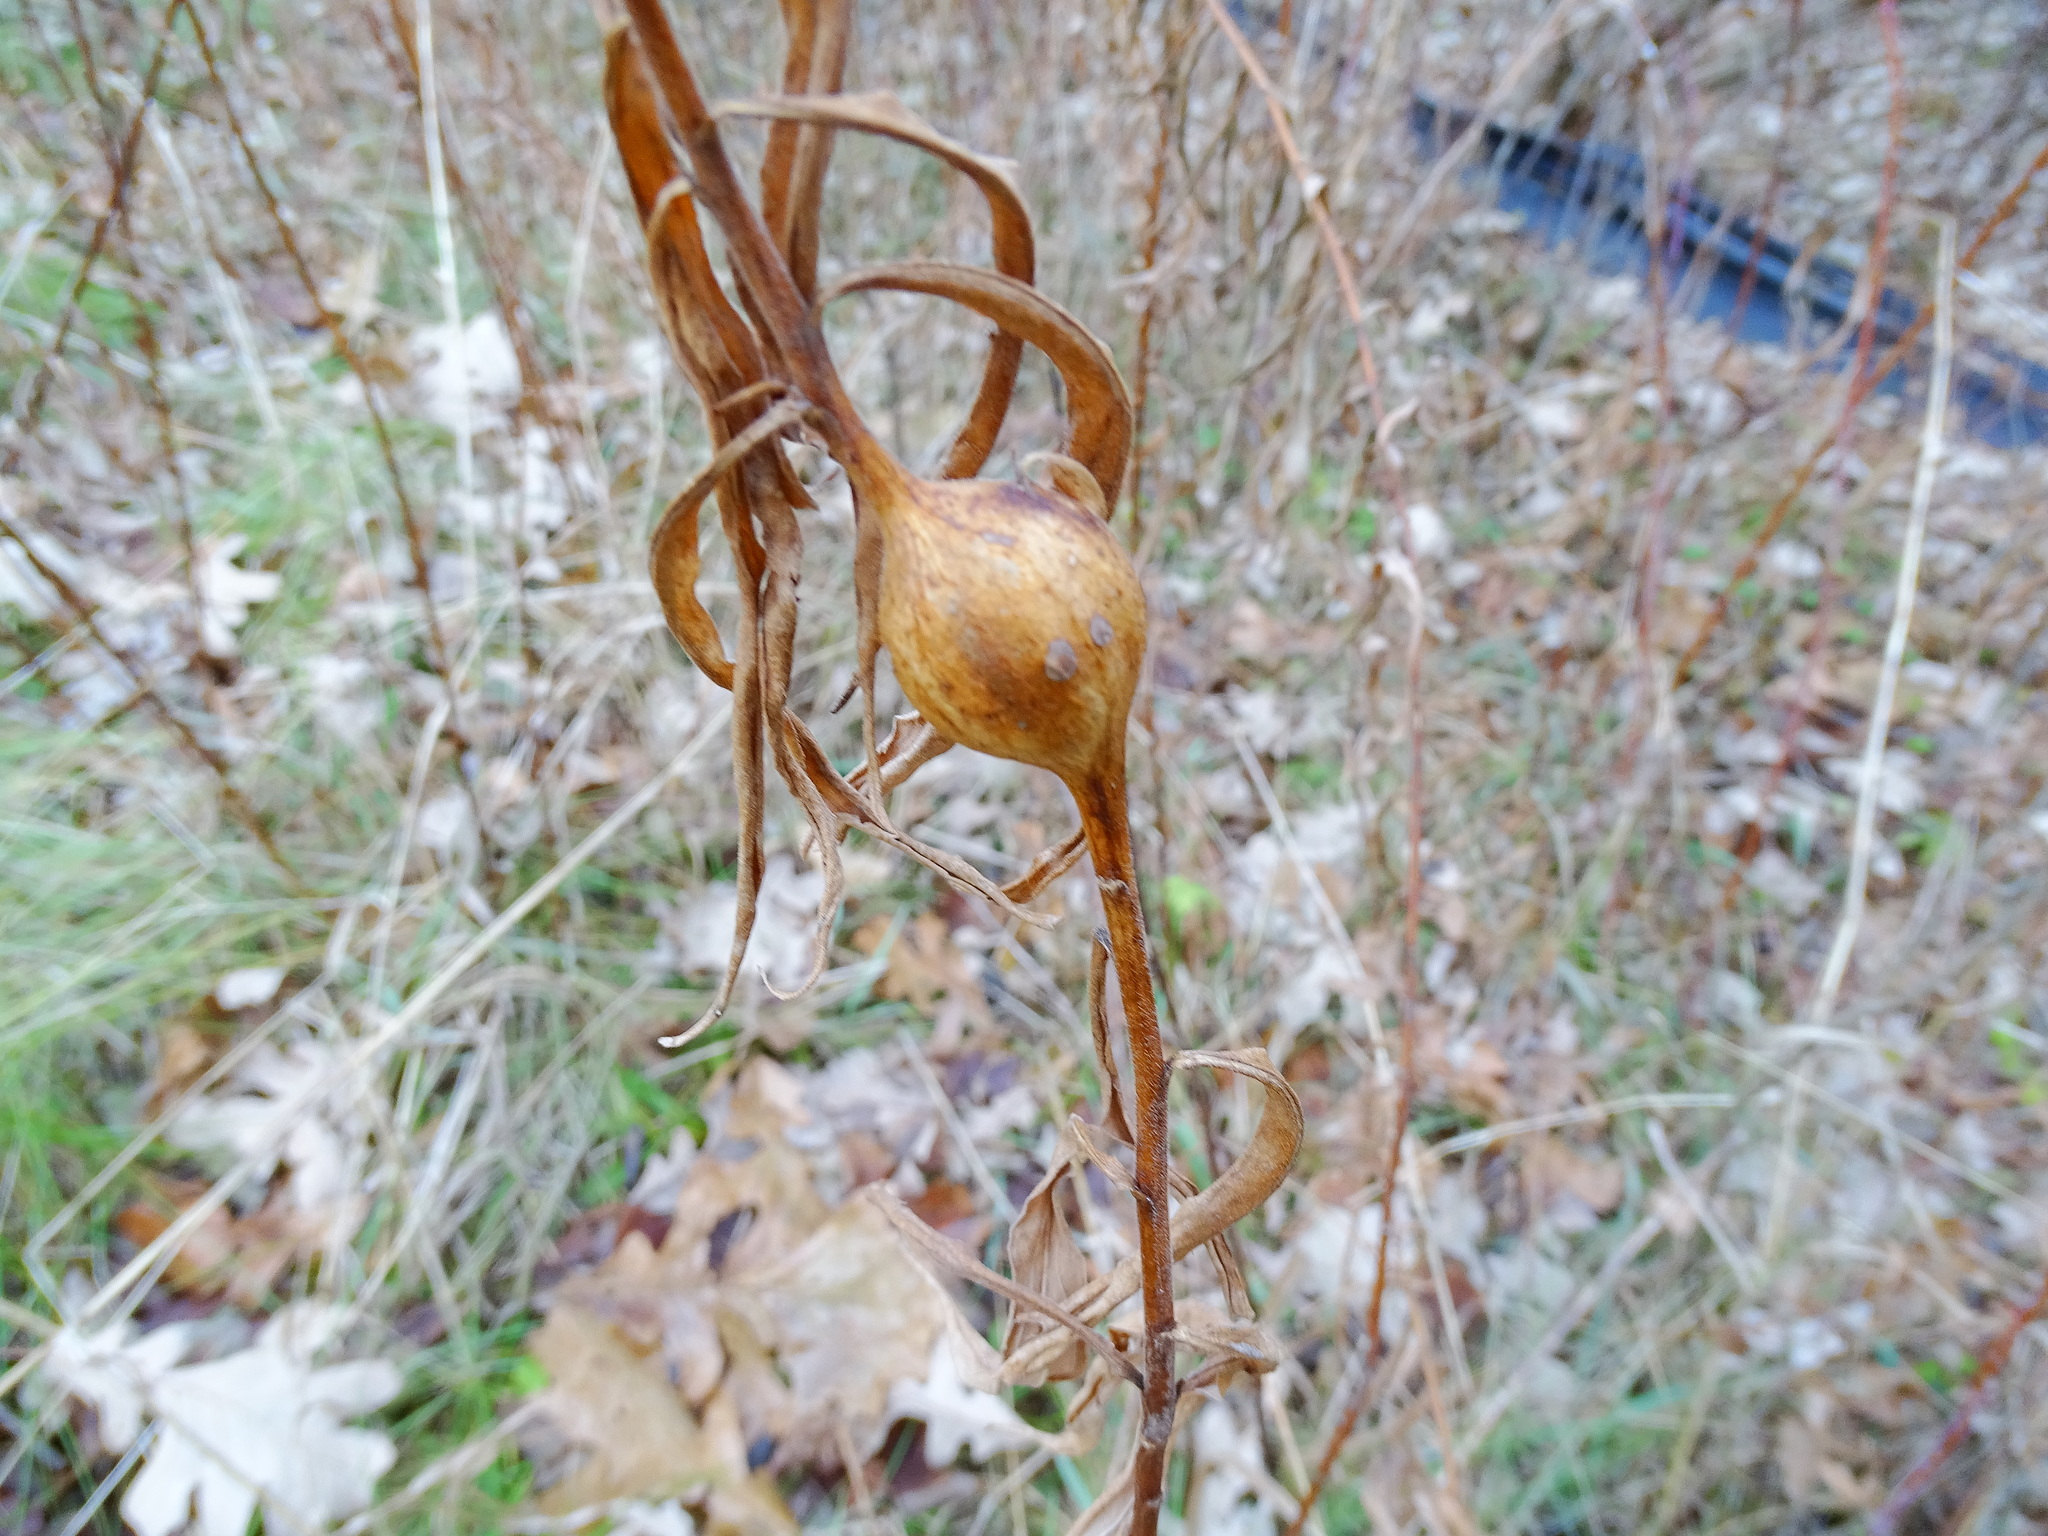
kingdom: Animalia
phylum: Arthropoda
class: Insecta
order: Diptera
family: Tephritidae
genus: Eurosta
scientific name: Eurosta solidaginis
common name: Goldenrod gall fly
